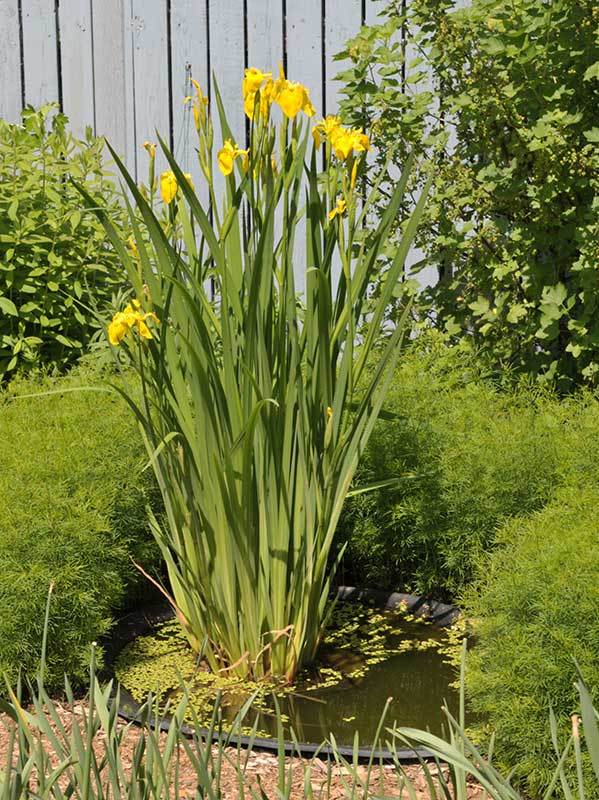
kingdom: Plantae
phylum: Tracheophyta
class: Liliopsida
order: Asparagales
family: Iridaceae
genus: Iris
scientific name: Iris pseudacorus
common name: Yellow flag
